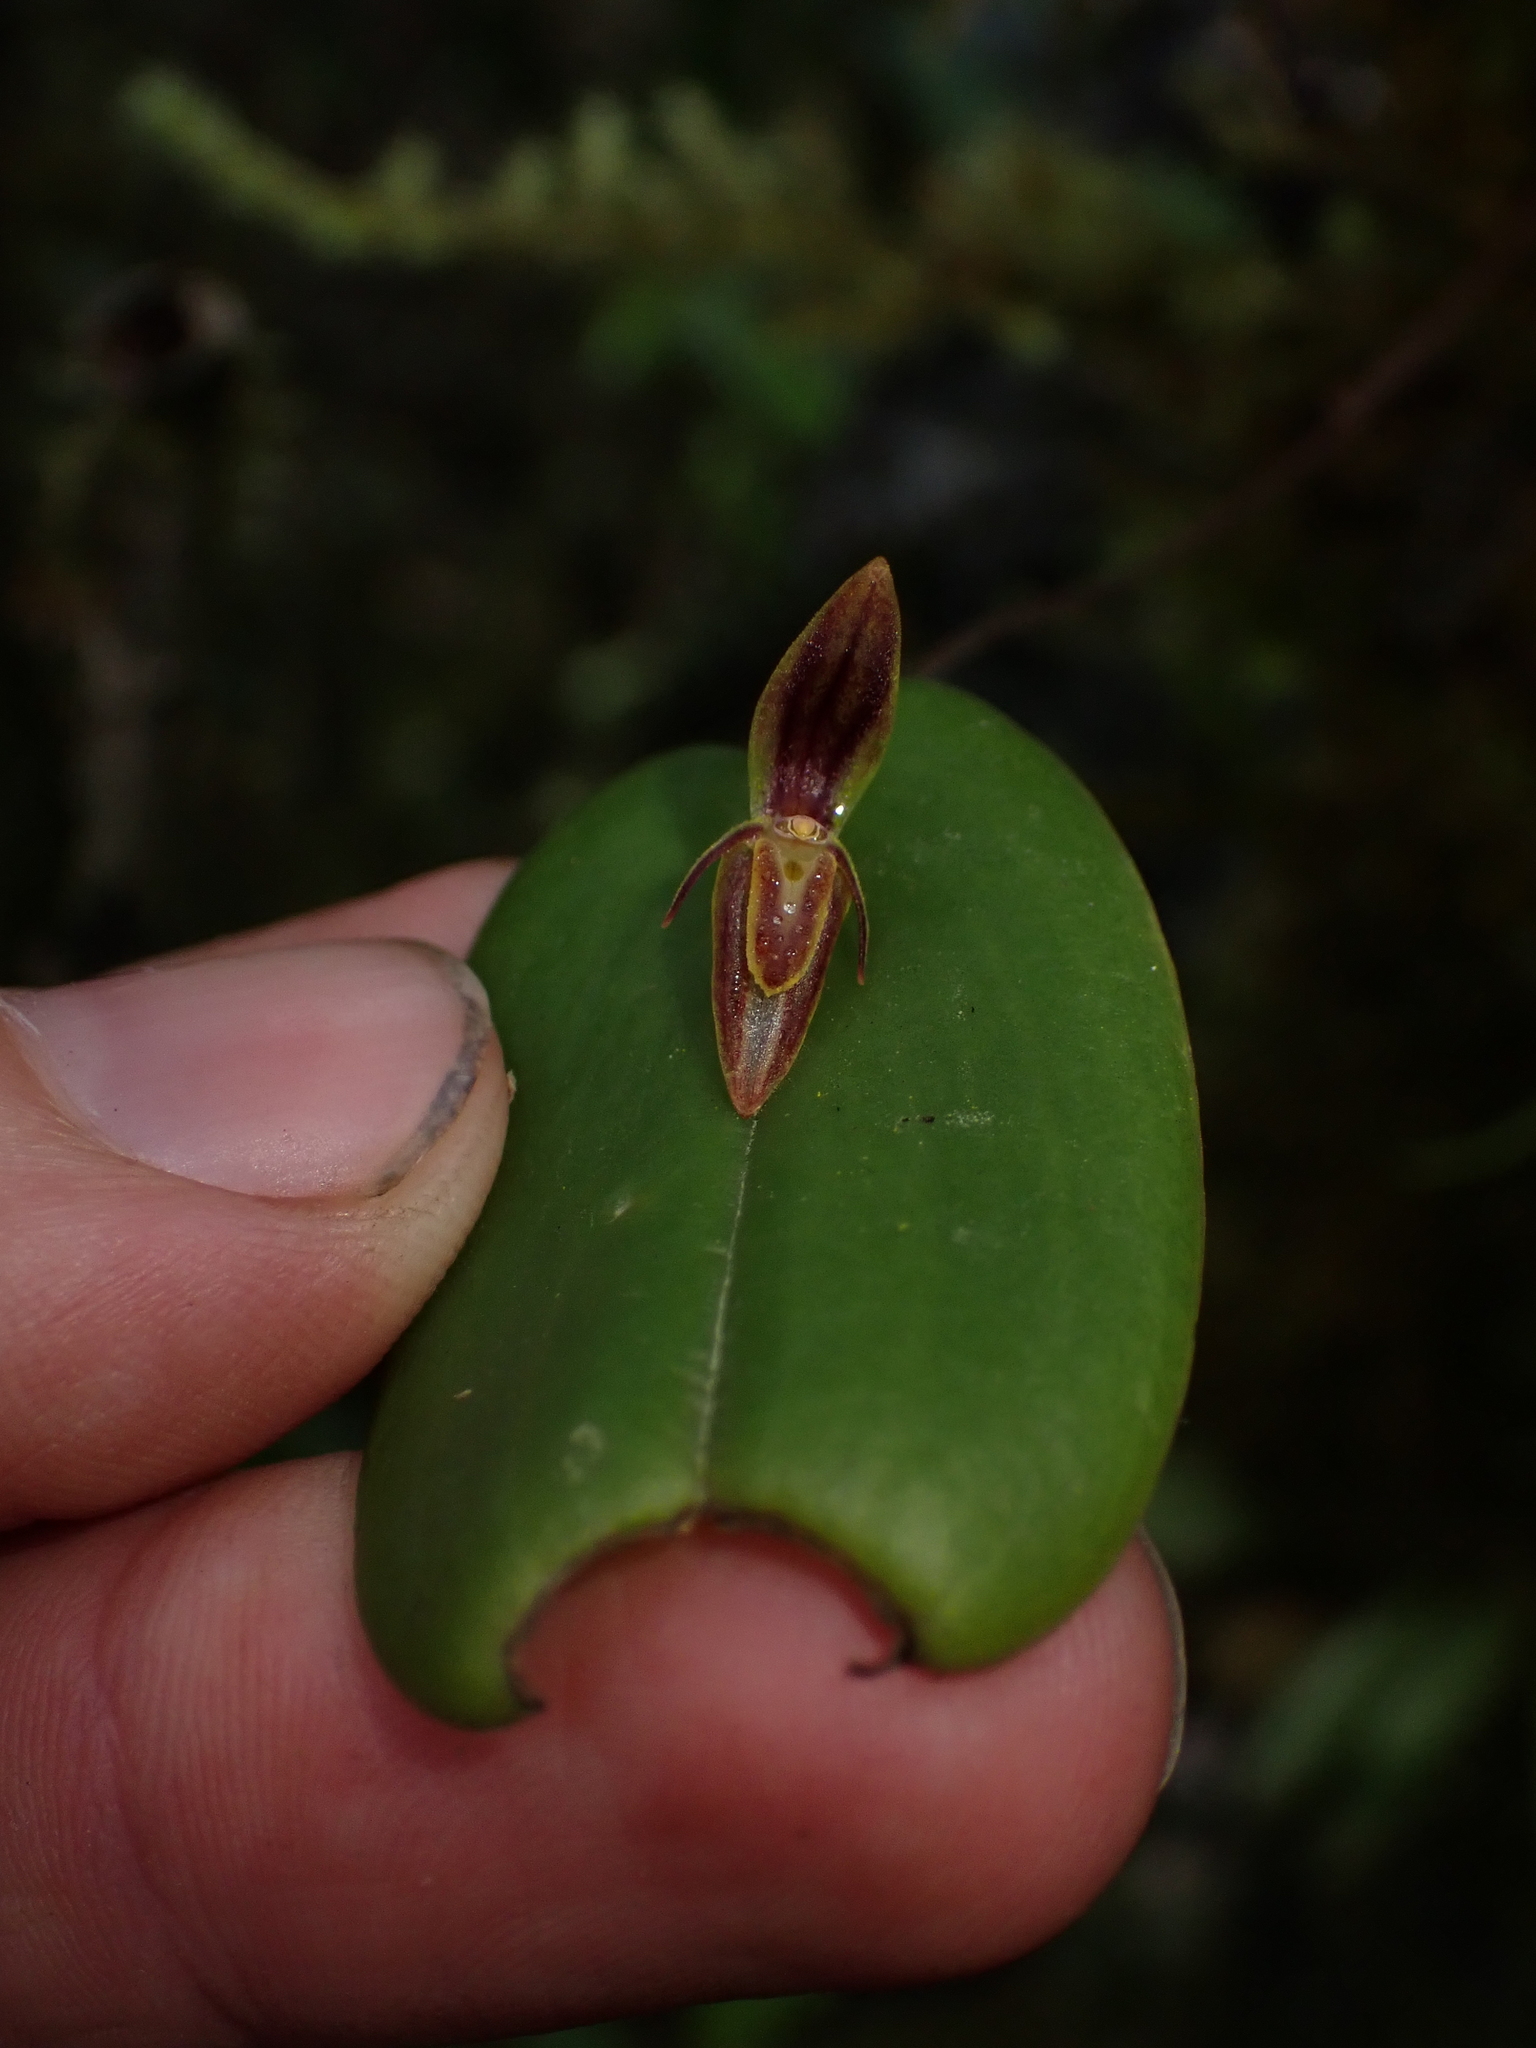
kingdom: Plantae
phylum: Tracheophyta
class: Liliopsida
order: Asparagales
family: Orchidaceae
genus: Pleurothallis
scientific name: Pleurothallis matudana
